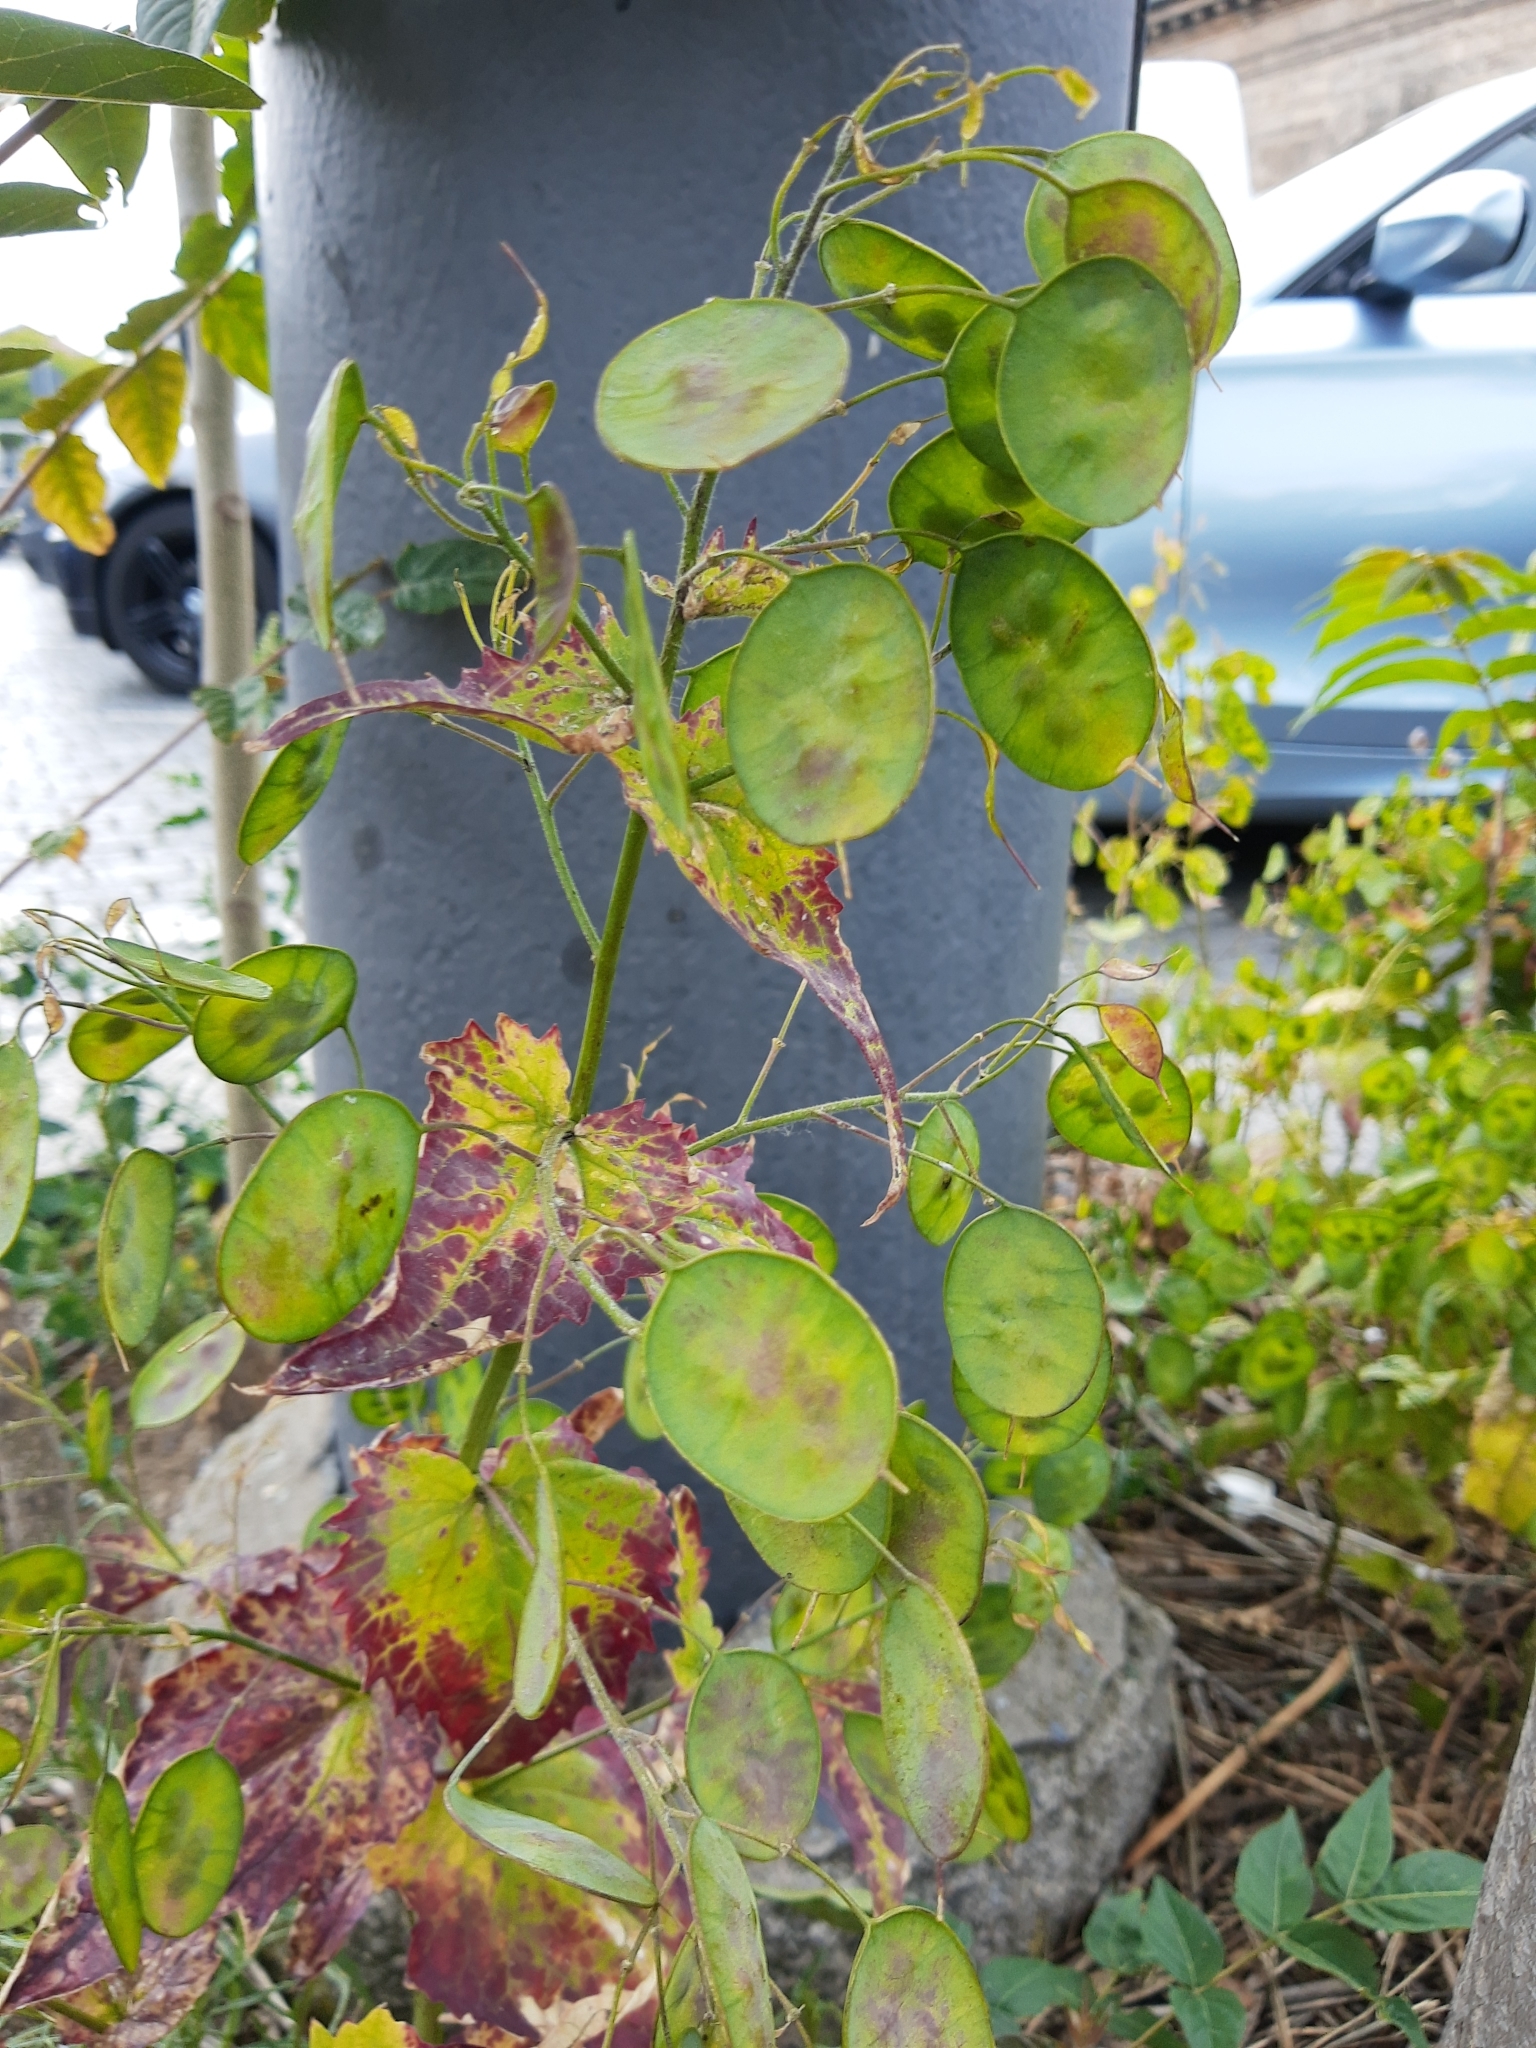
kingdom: Plantae
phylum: Tracheophyta
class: Magnoliopsida
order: Brassicales
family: Brassicaceae
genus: Lunaria
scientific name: Lunaria annua
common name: Honesty
